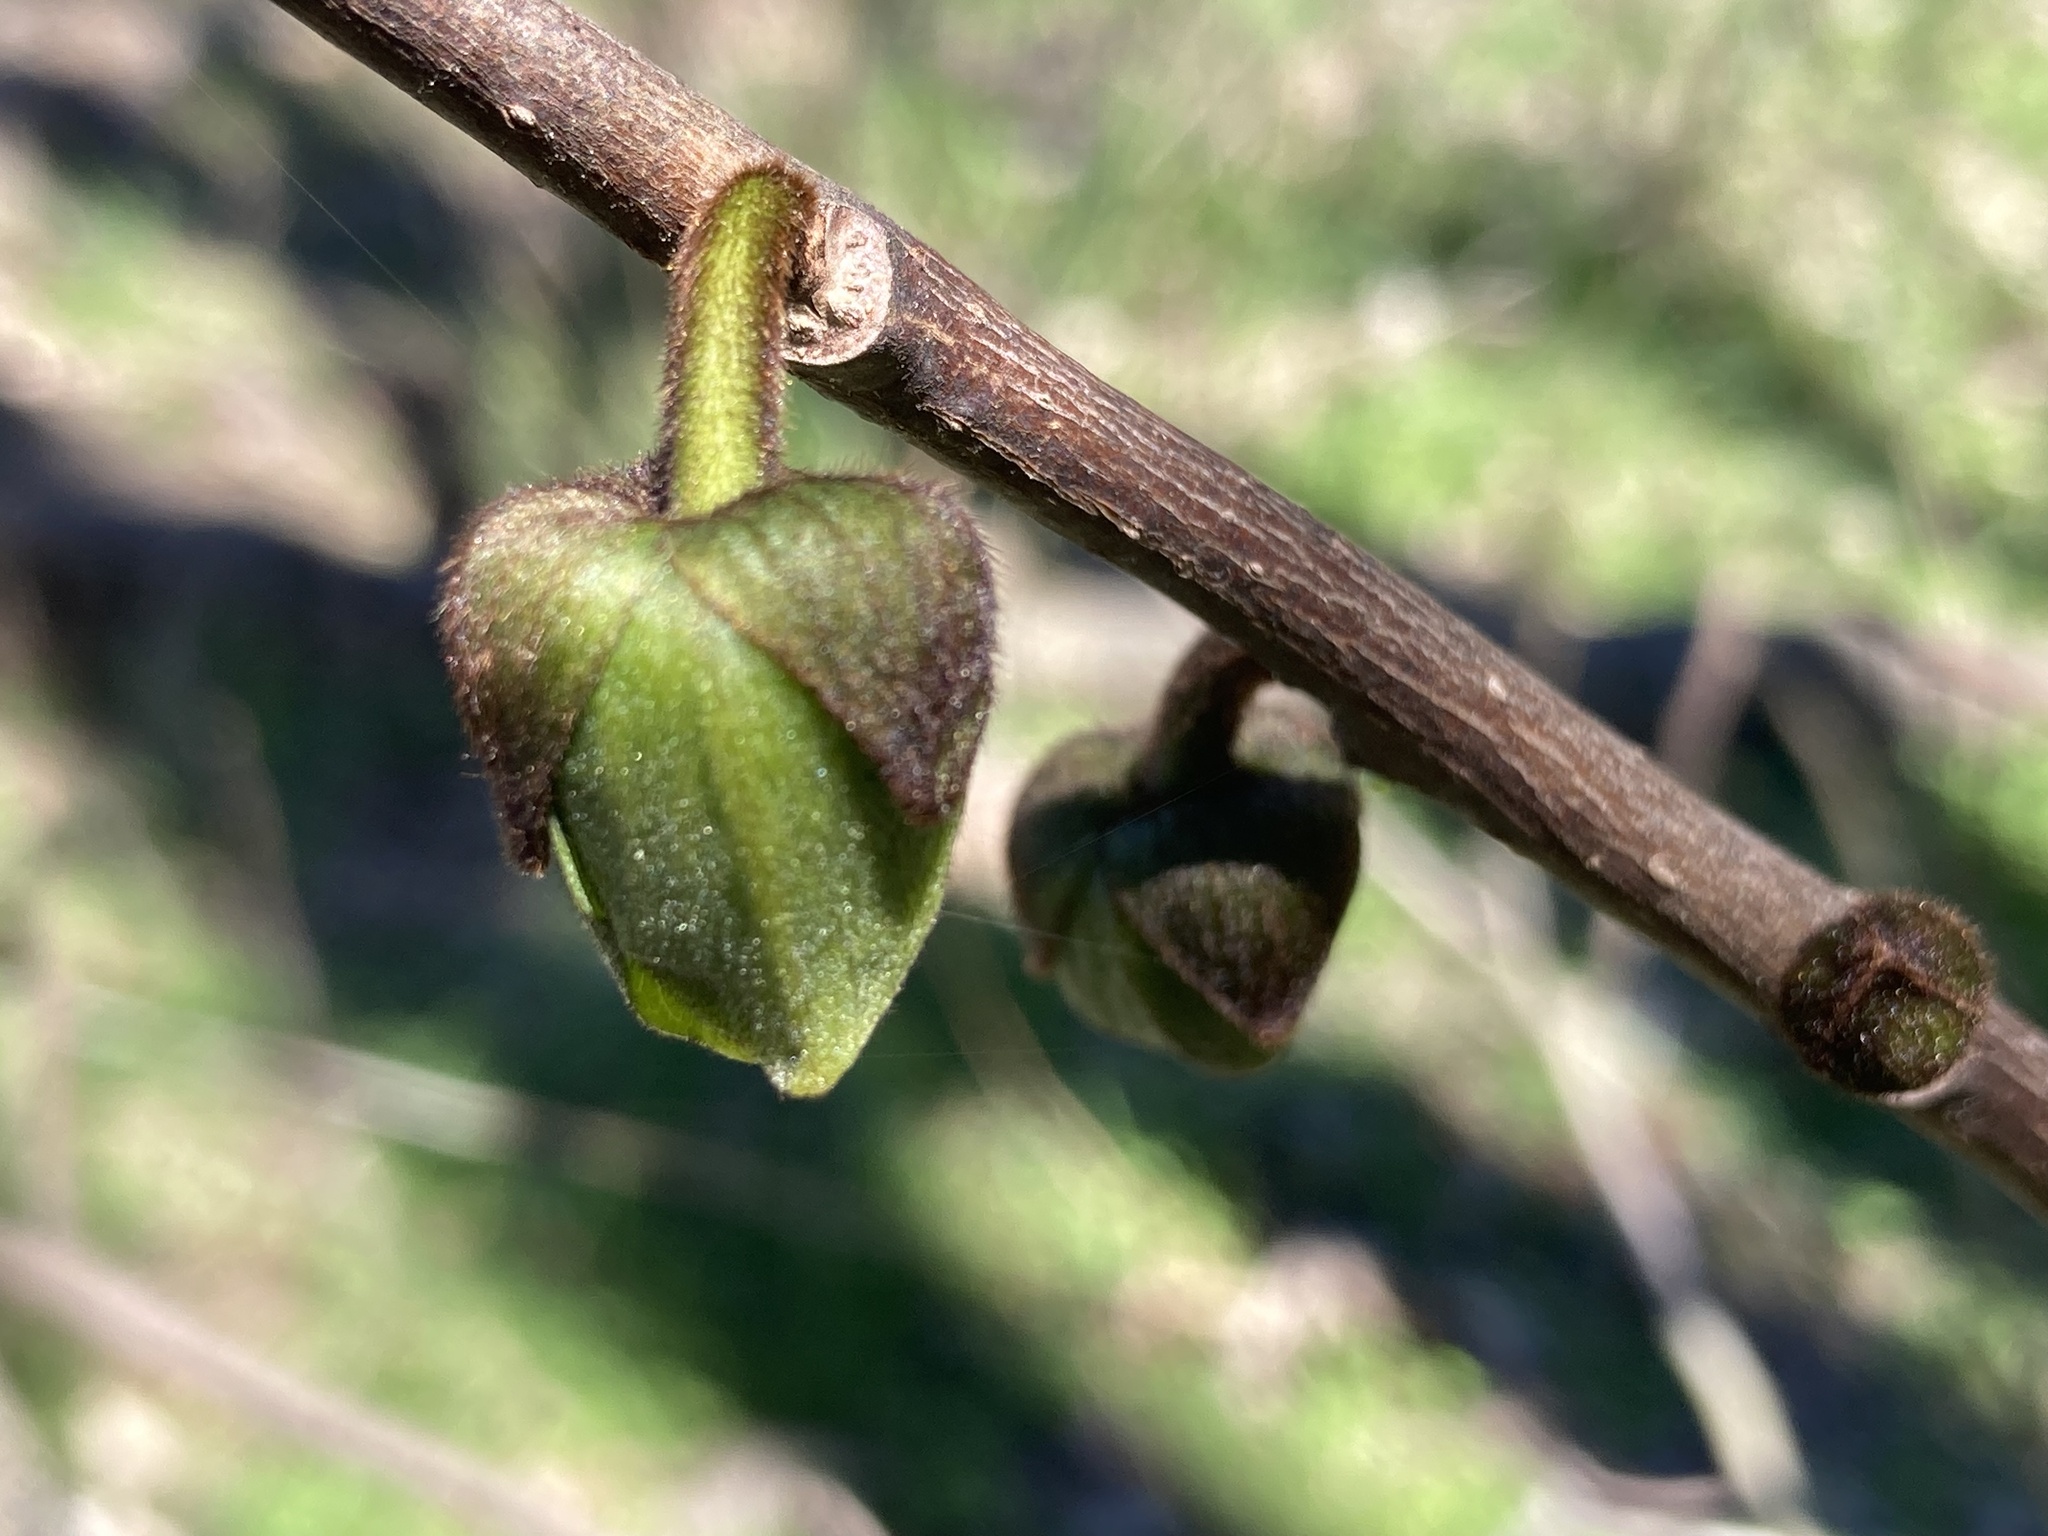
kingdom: Plantae
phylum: Tracheophyta
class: Magnoliopsida
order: Magnoliales
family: Annonaceae
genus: Asimina
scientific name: Asimina triloba
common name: Dog-banana
